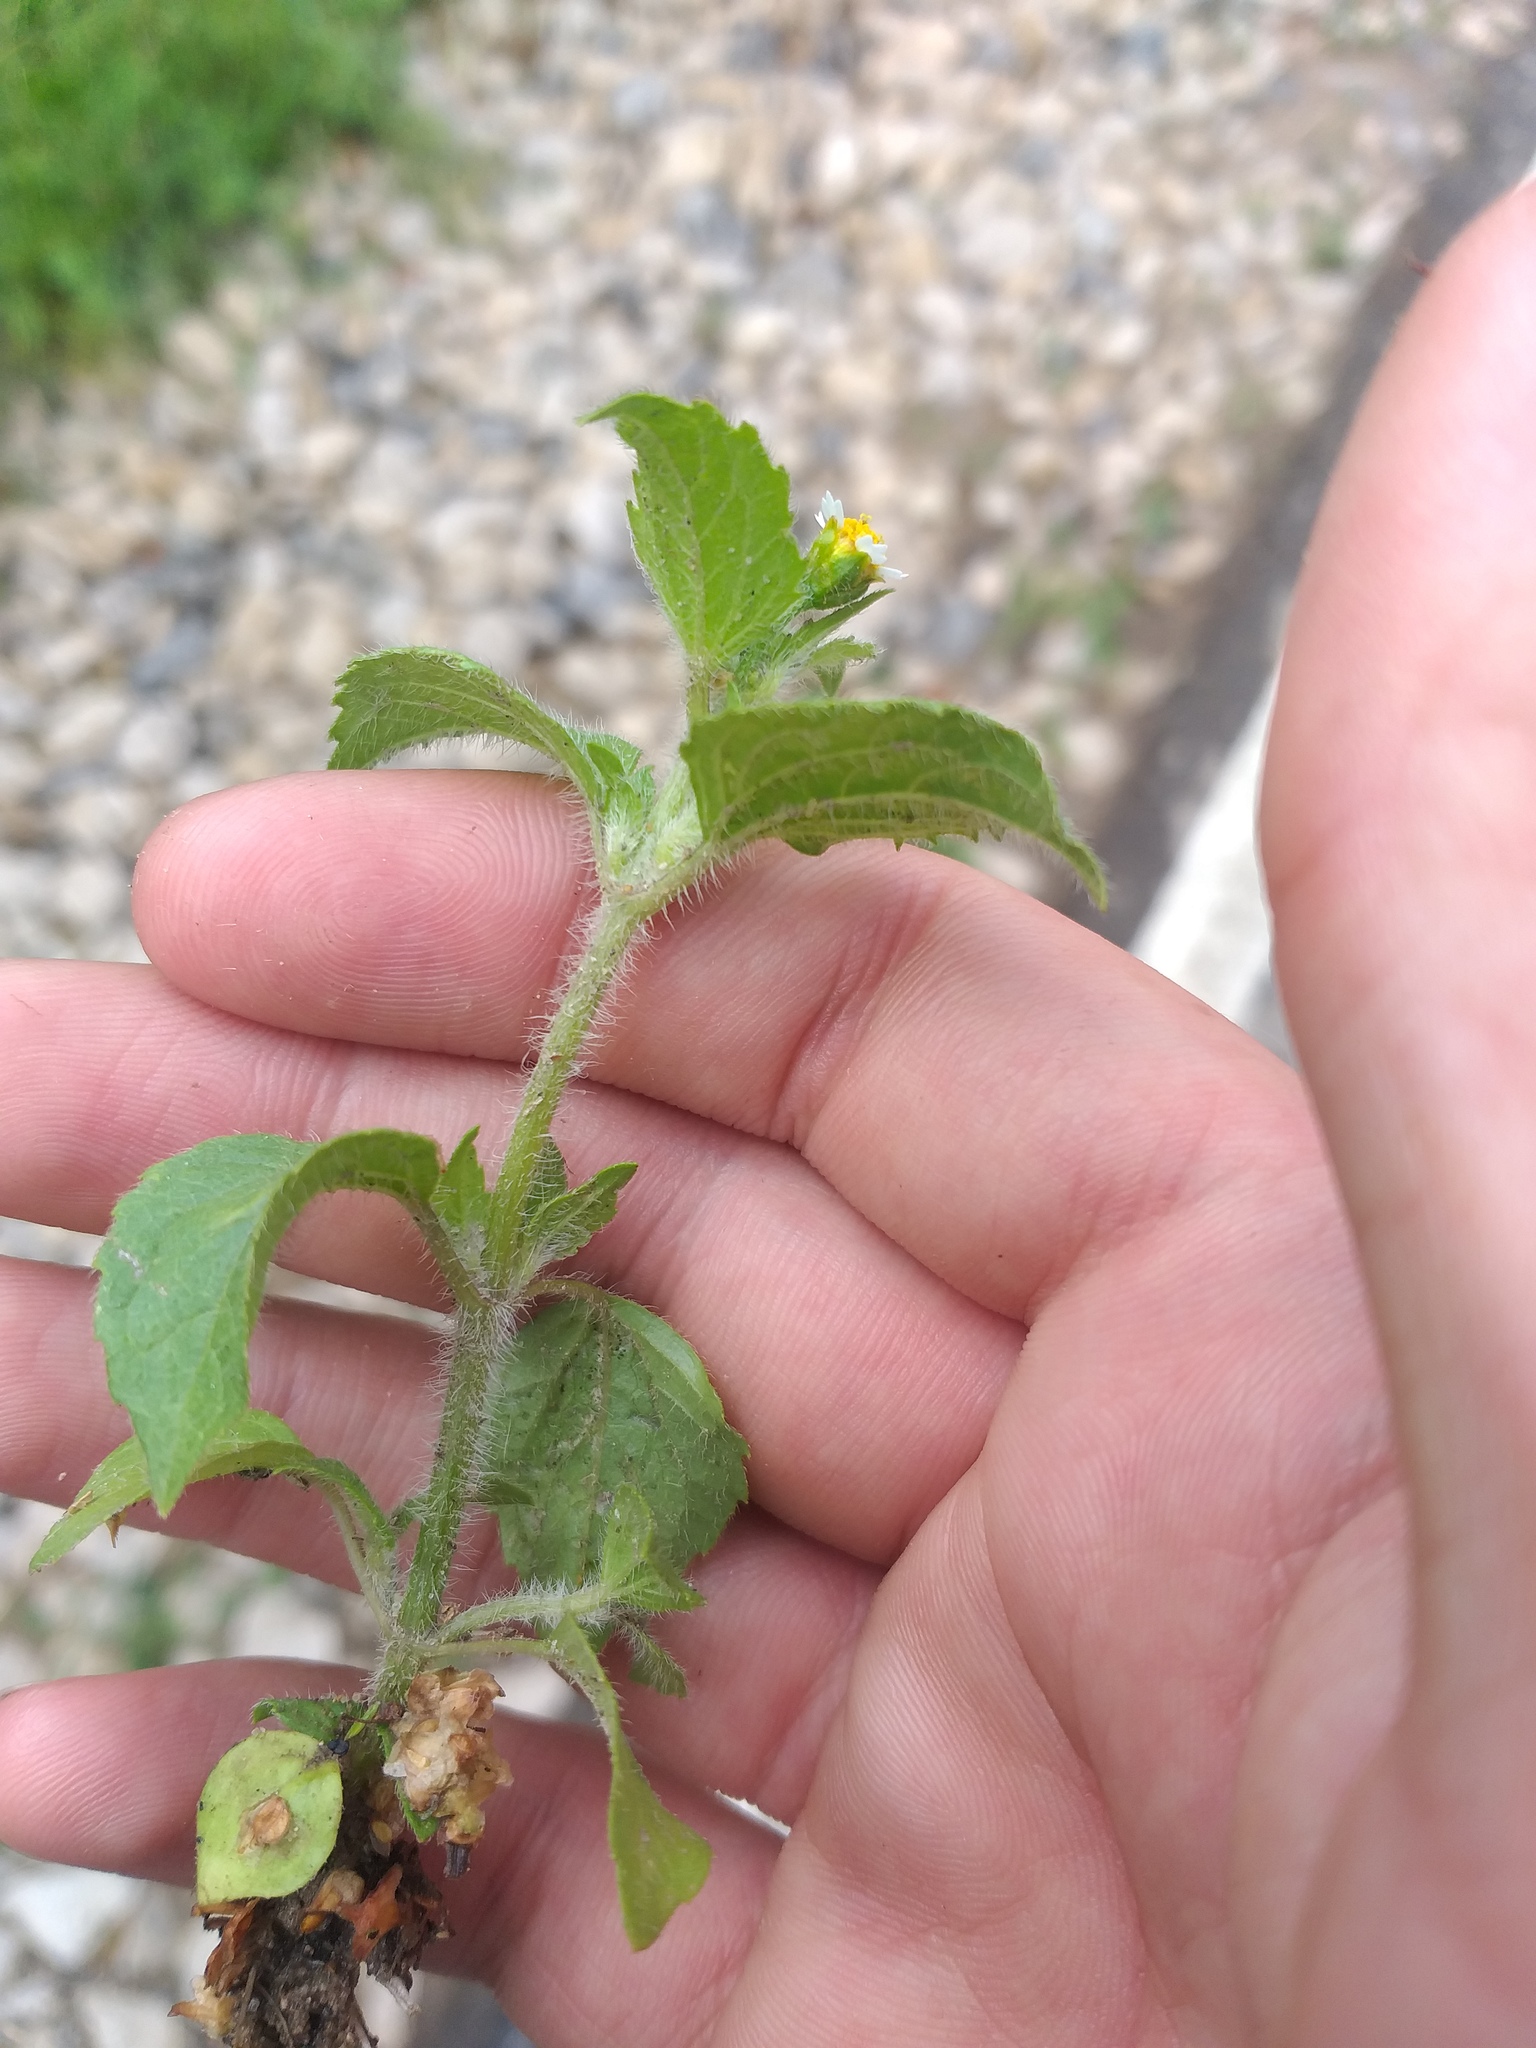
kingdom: Plantae
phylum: Tracheophyta
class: Magnoliopsida
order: Asterales
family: Asteraceae
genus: Galinsoga
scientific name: Galinsoga quadriradiata
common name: Shaggy soldier
